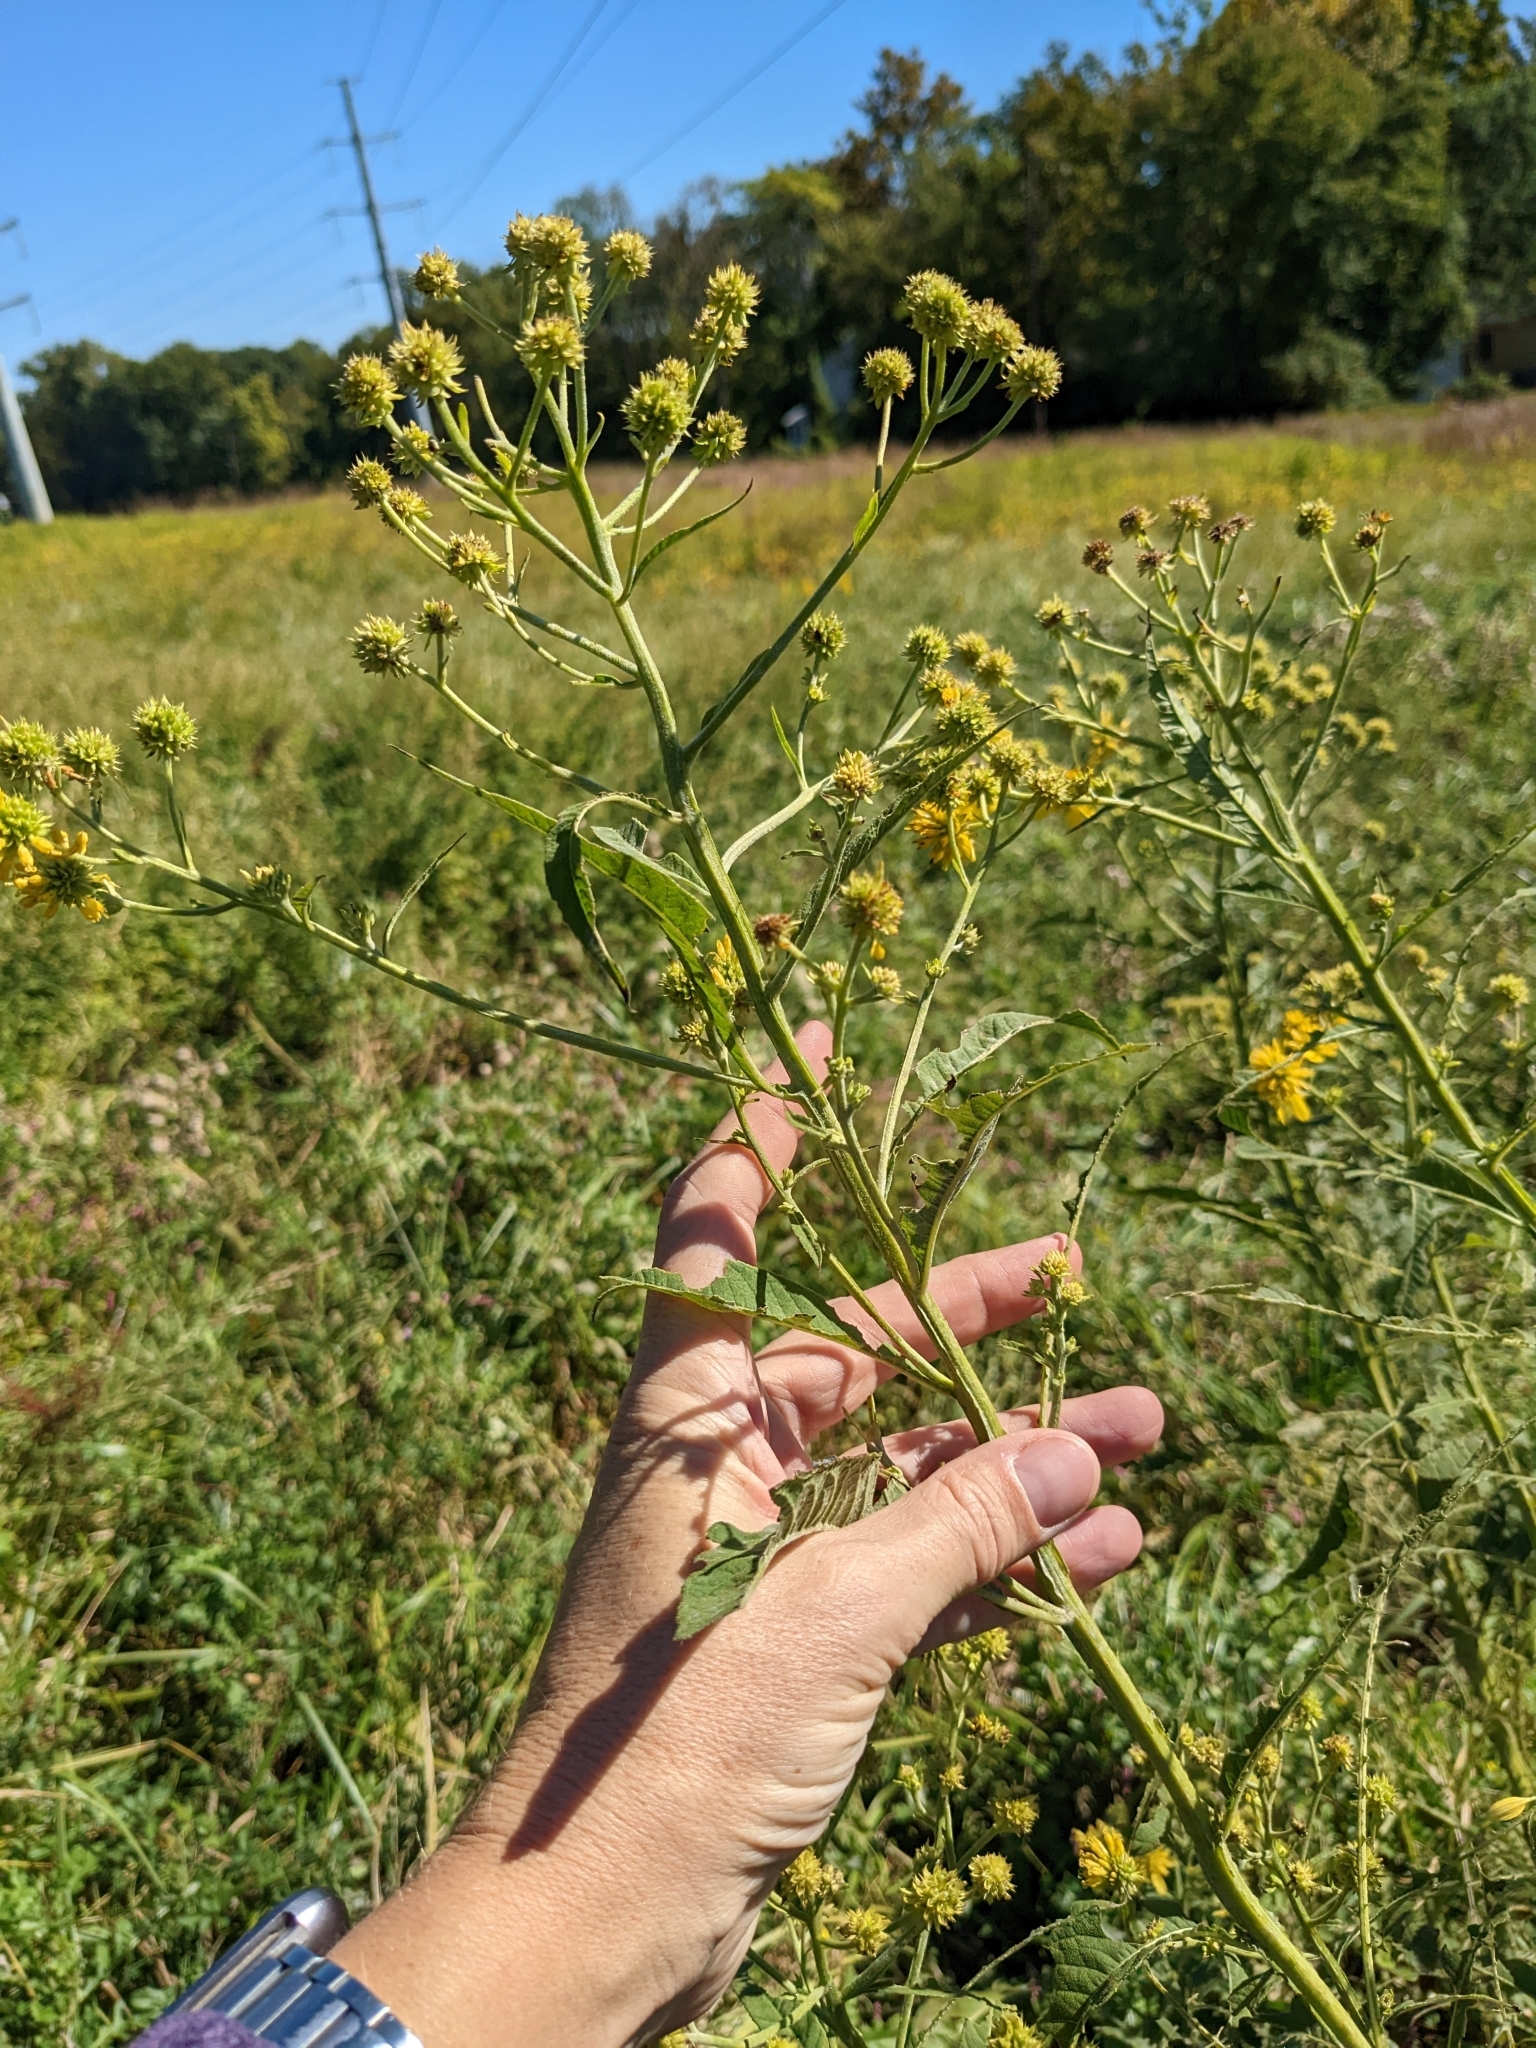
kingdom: Plantae
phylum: Tracheophyta
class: Magnoliopsida
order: Asterales
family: Asteraceae
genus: Verbesina
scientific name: Verbesina alternifolia
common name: Wingstem
